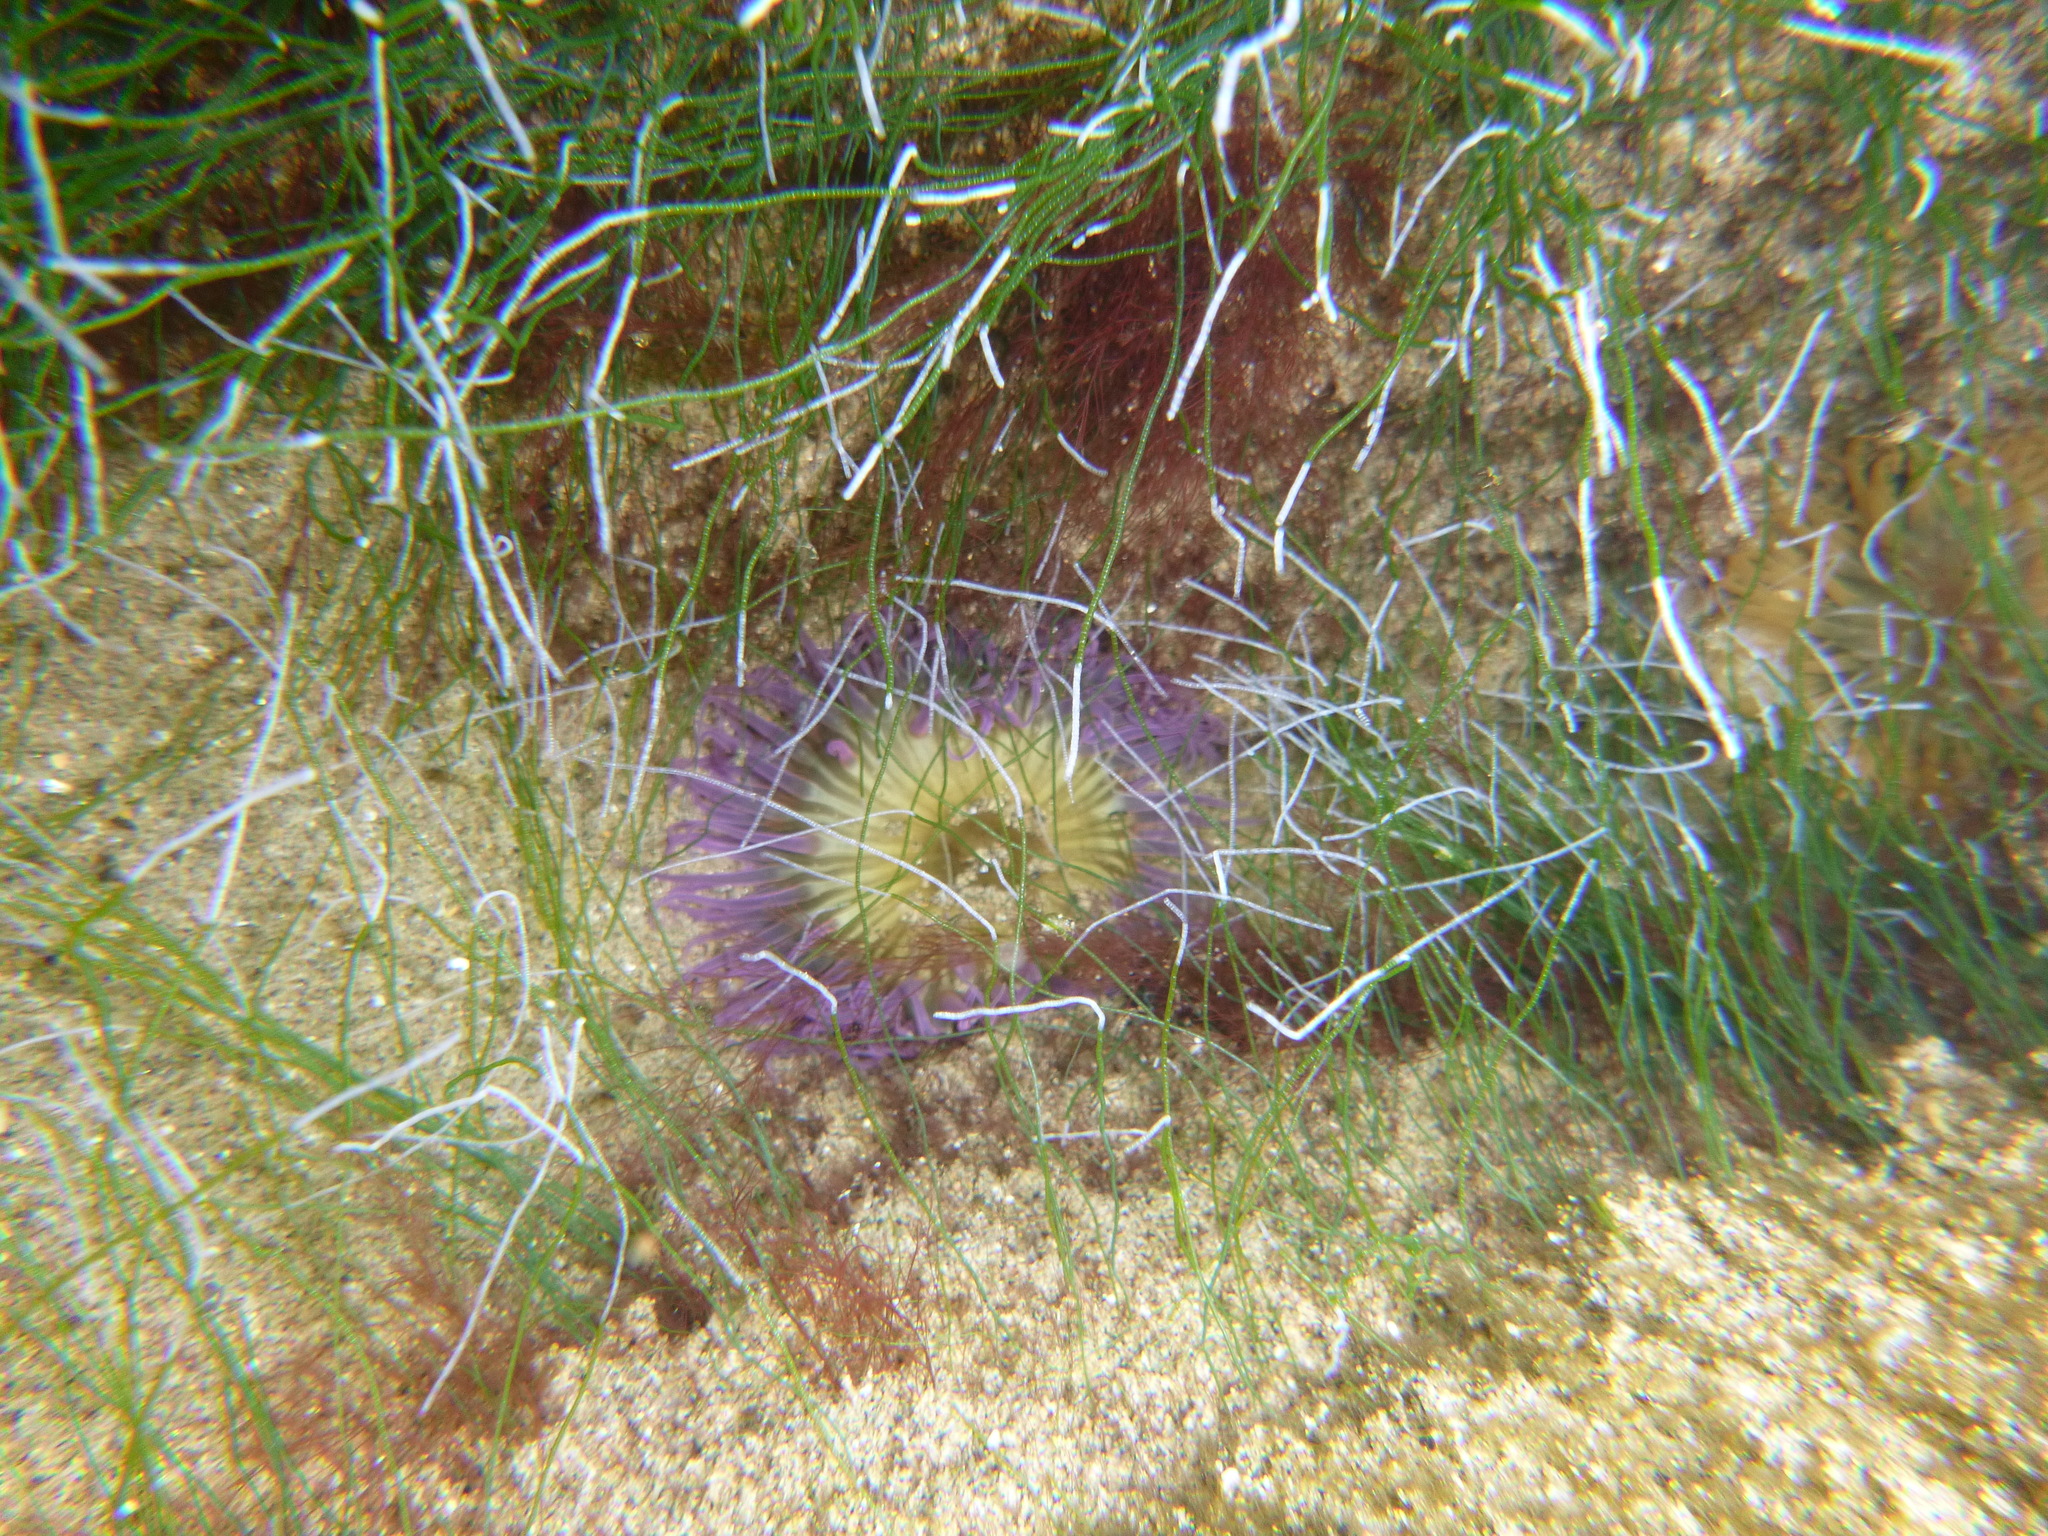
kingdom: Animalia
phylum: Cnidaria
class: Anthozoa
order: Actiniaria
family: Actiniidae
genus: Oulactis
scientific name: Oulactis magna
